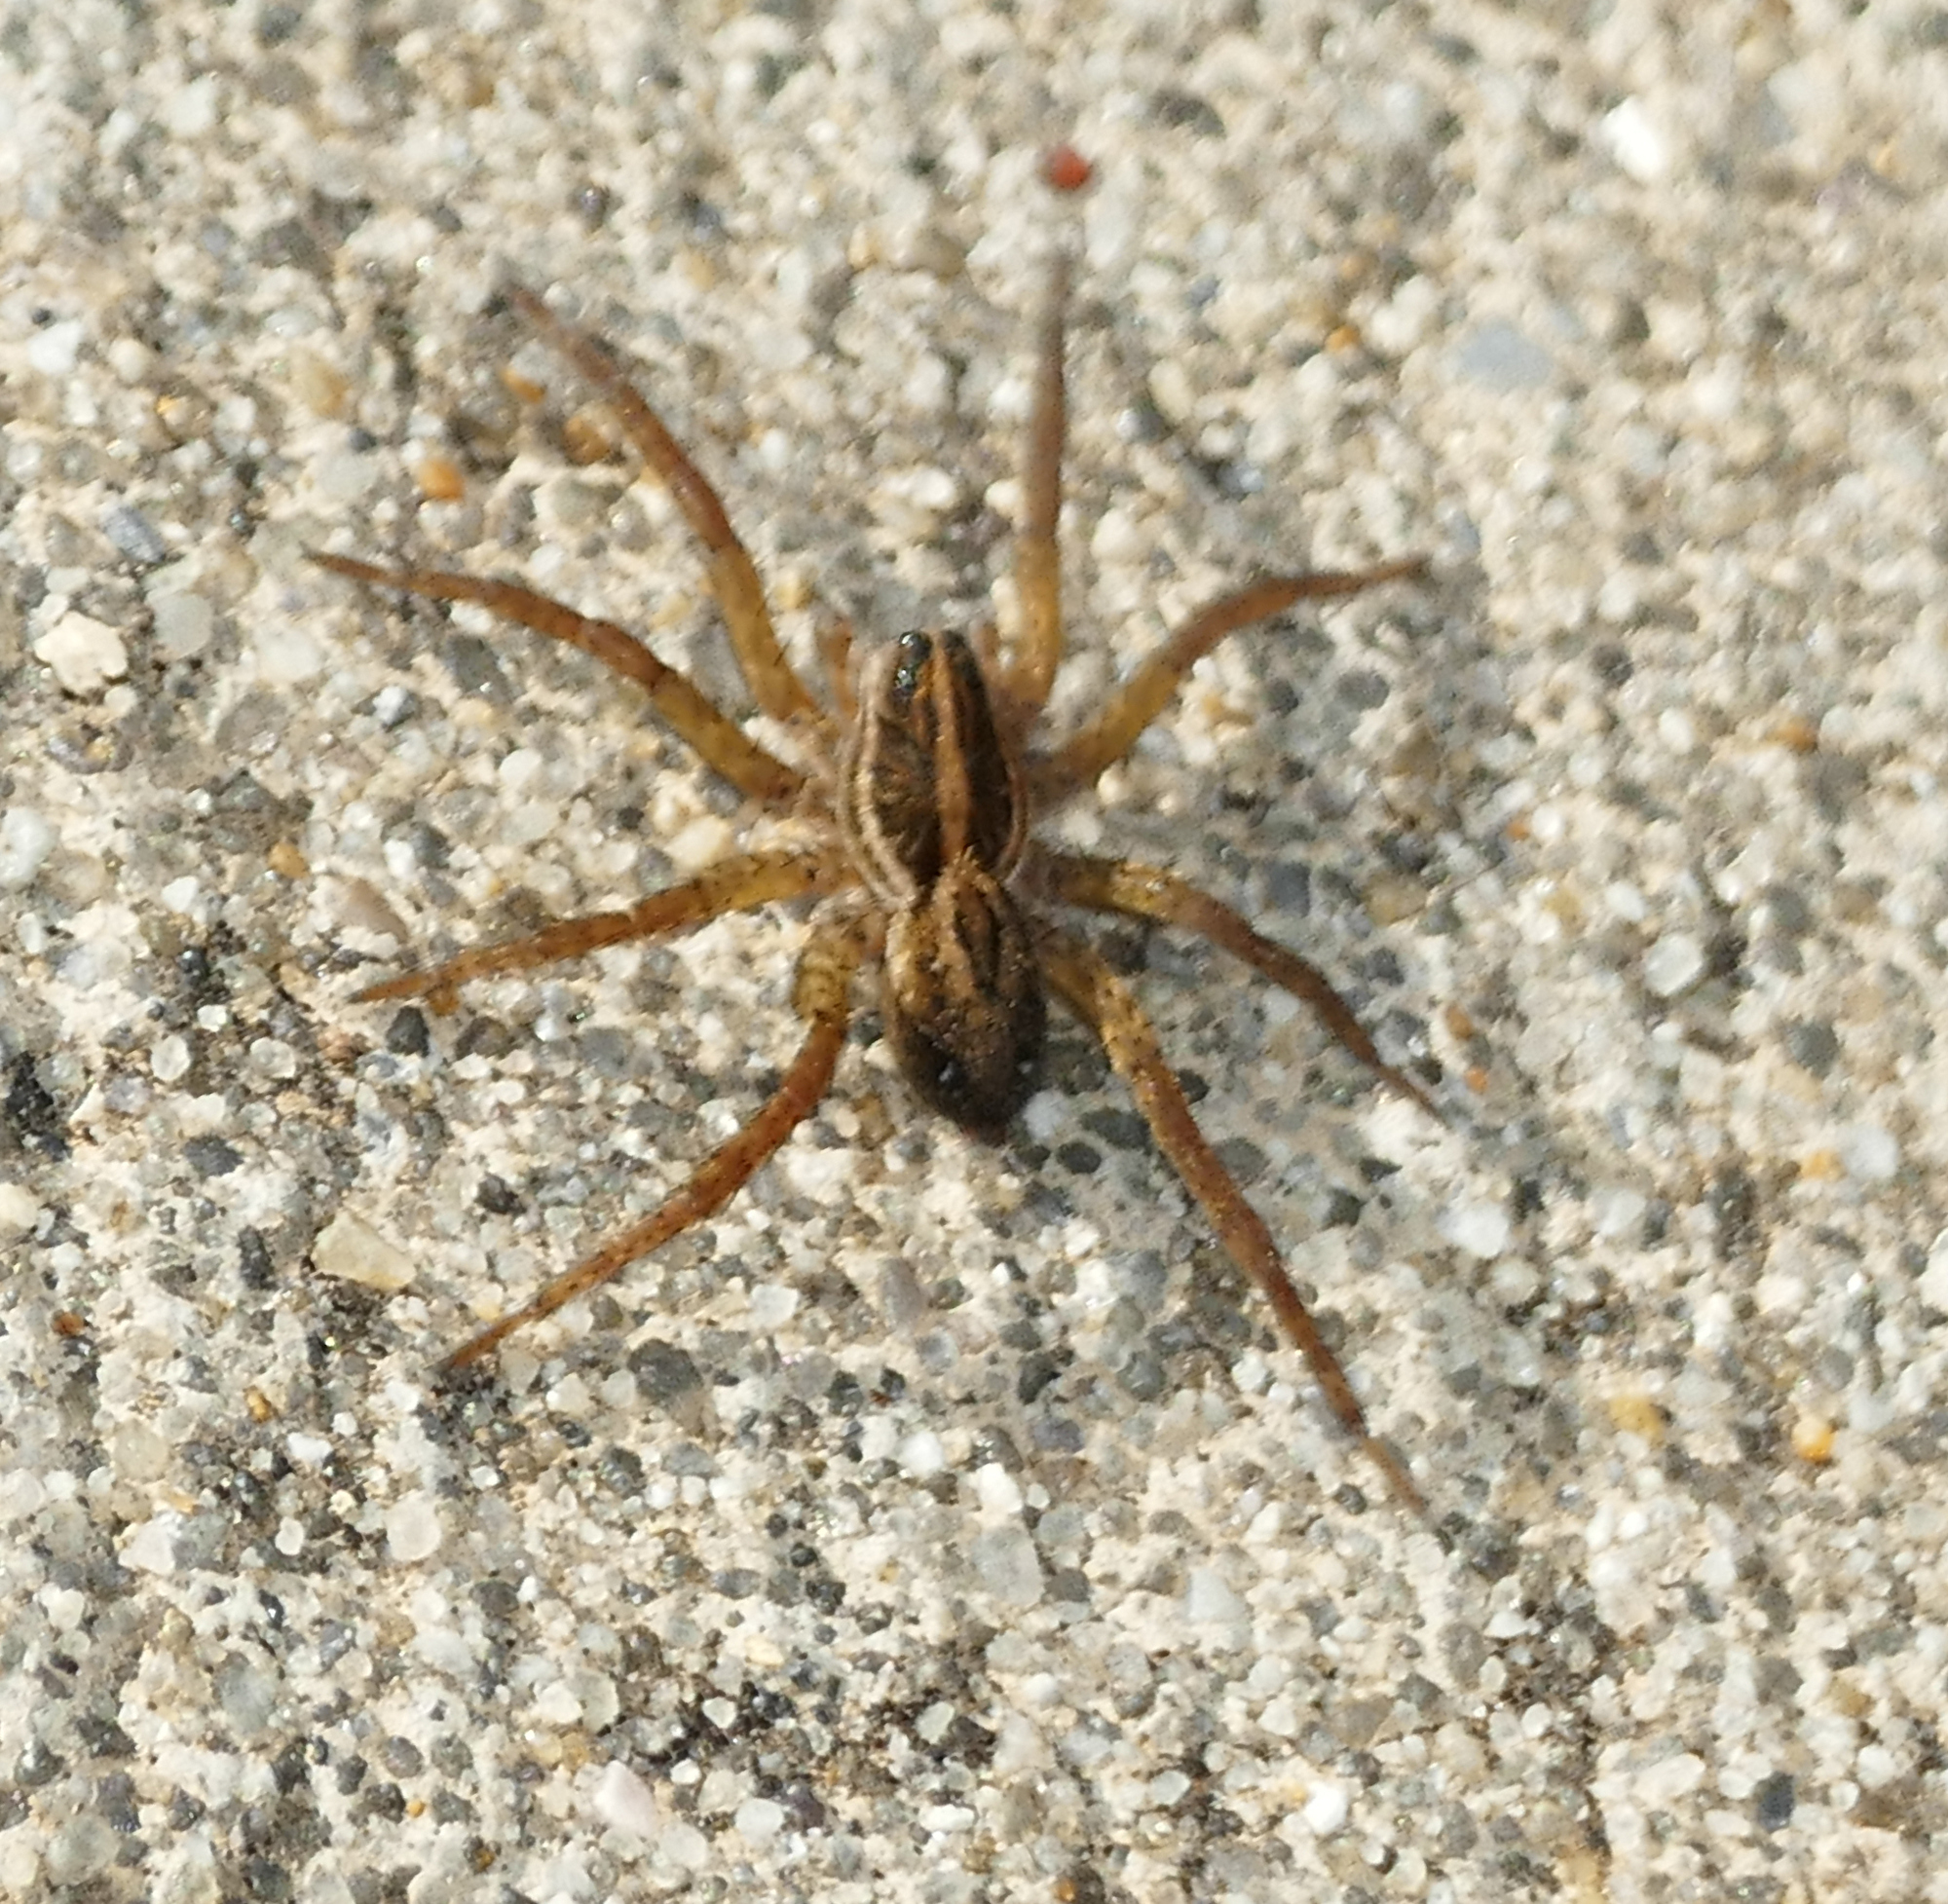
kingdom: Animalia
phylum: Arthropoda
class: Arachnida
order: Araneae
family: Lycosidae
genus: Tigrosa
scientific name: Tigrosa annexa
